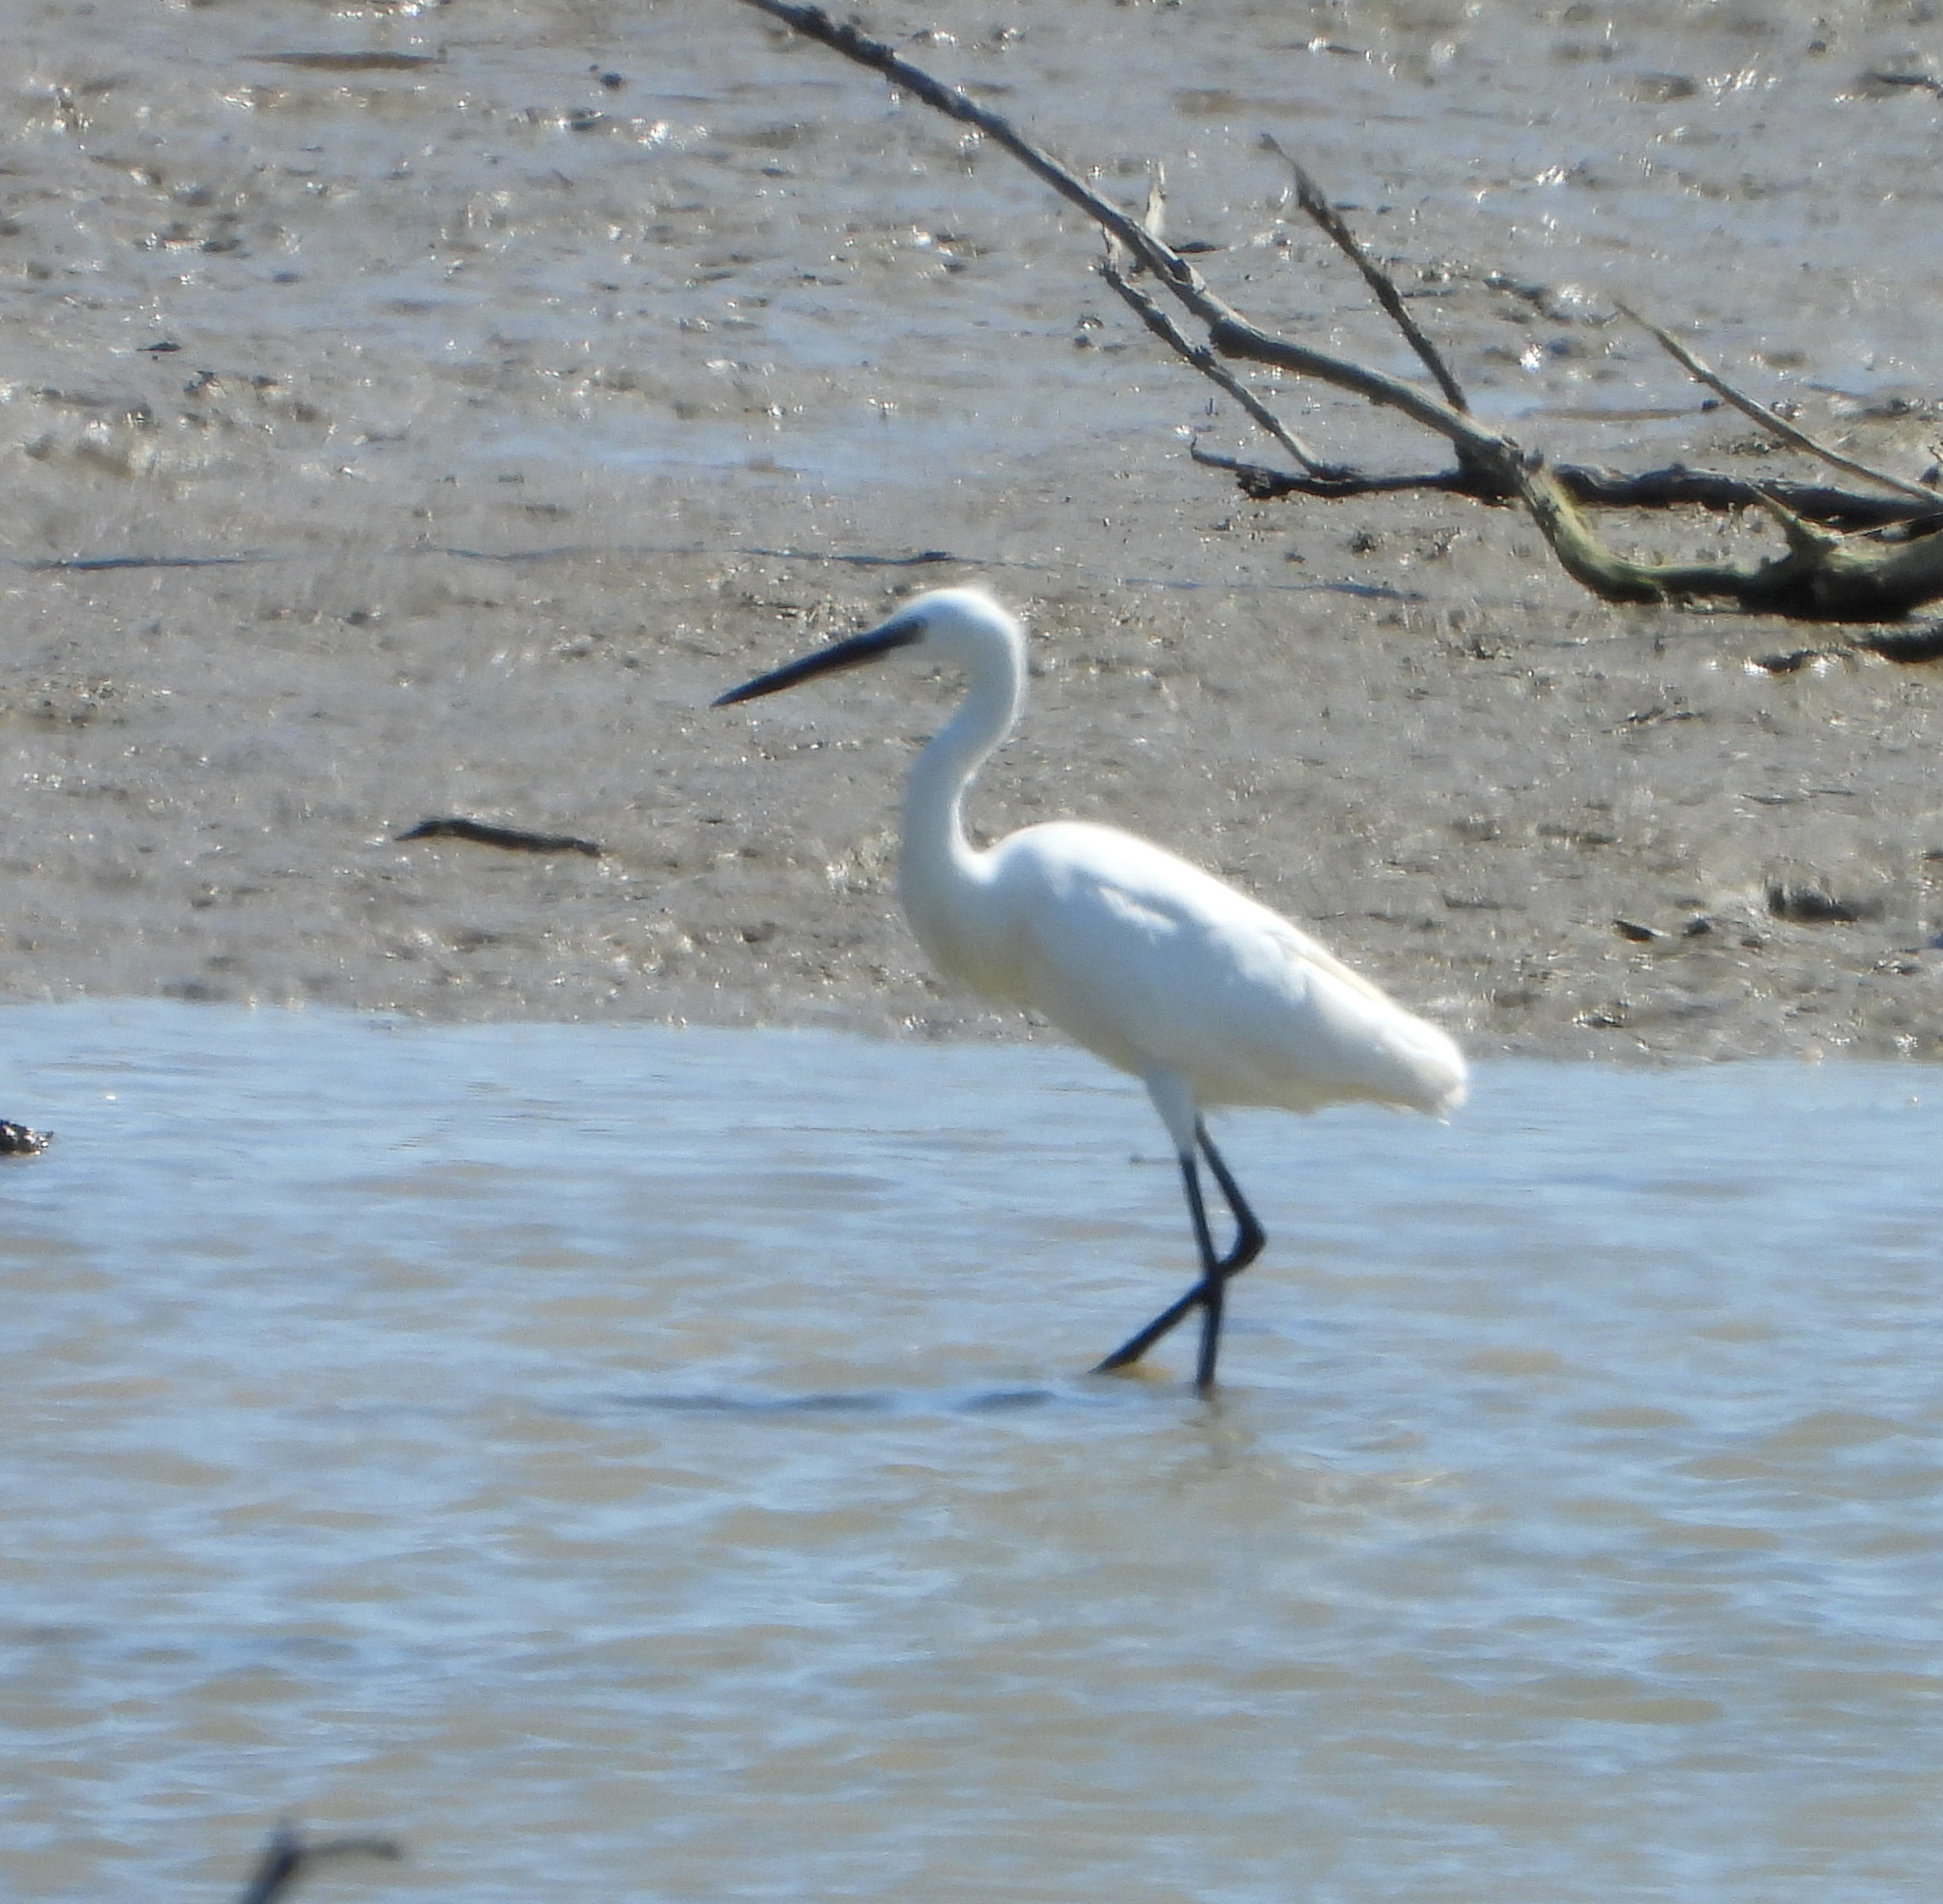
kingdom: Animalia
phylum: Chordata
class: Aves
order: Pelecaniformes
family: Ardeidae
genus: Egretta
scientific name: Egretta garzetta
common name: Little egret
